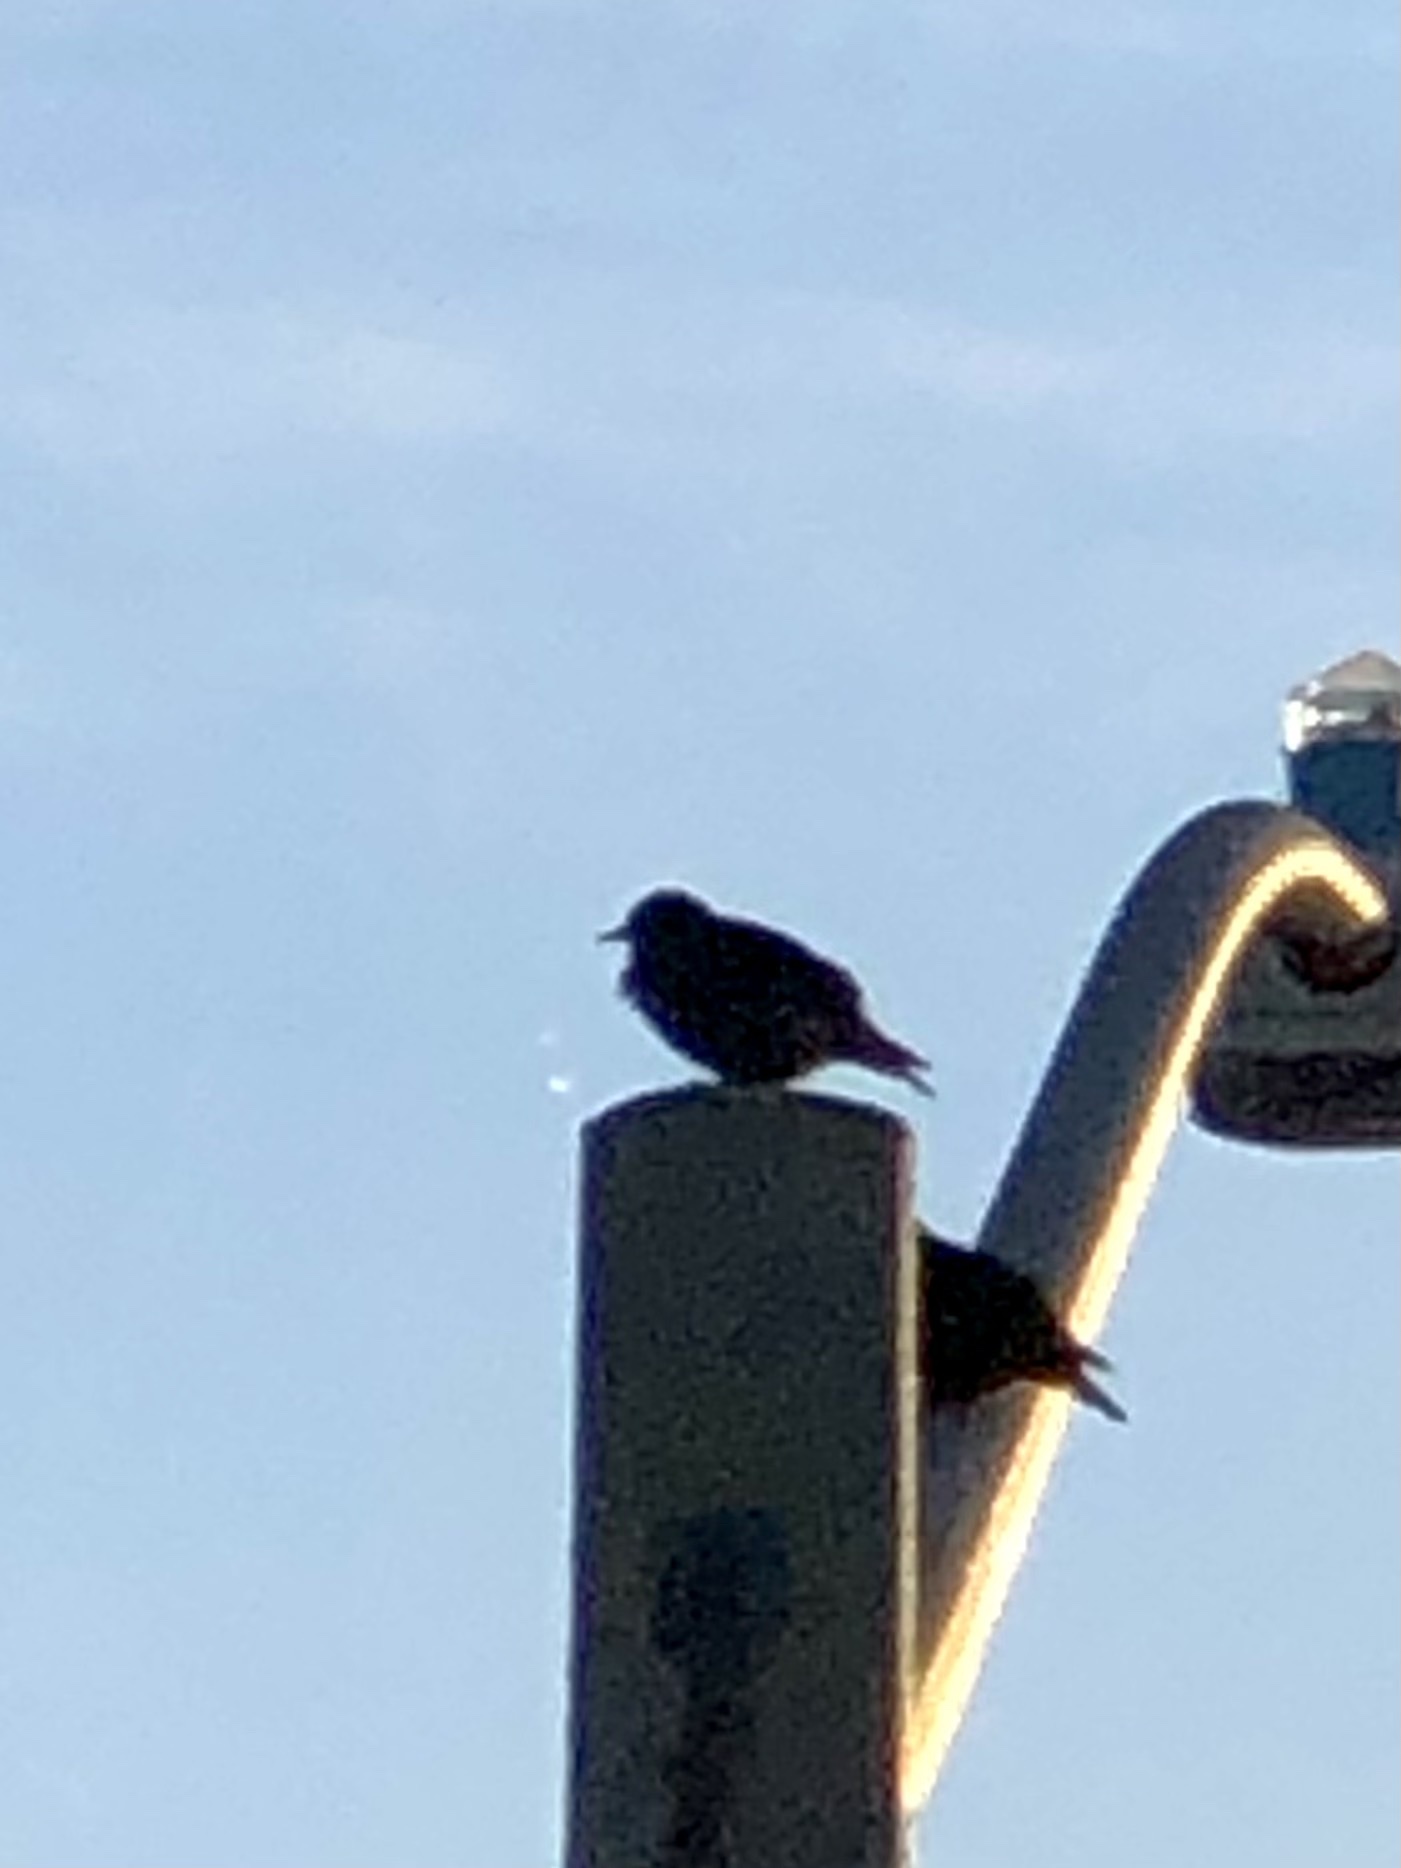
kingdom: Animalia
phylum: Chordata
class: Aves
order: Passeriformes
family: Sturnidae
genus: Sturnus
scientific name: Sturnus vulgaris
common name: Common starling
